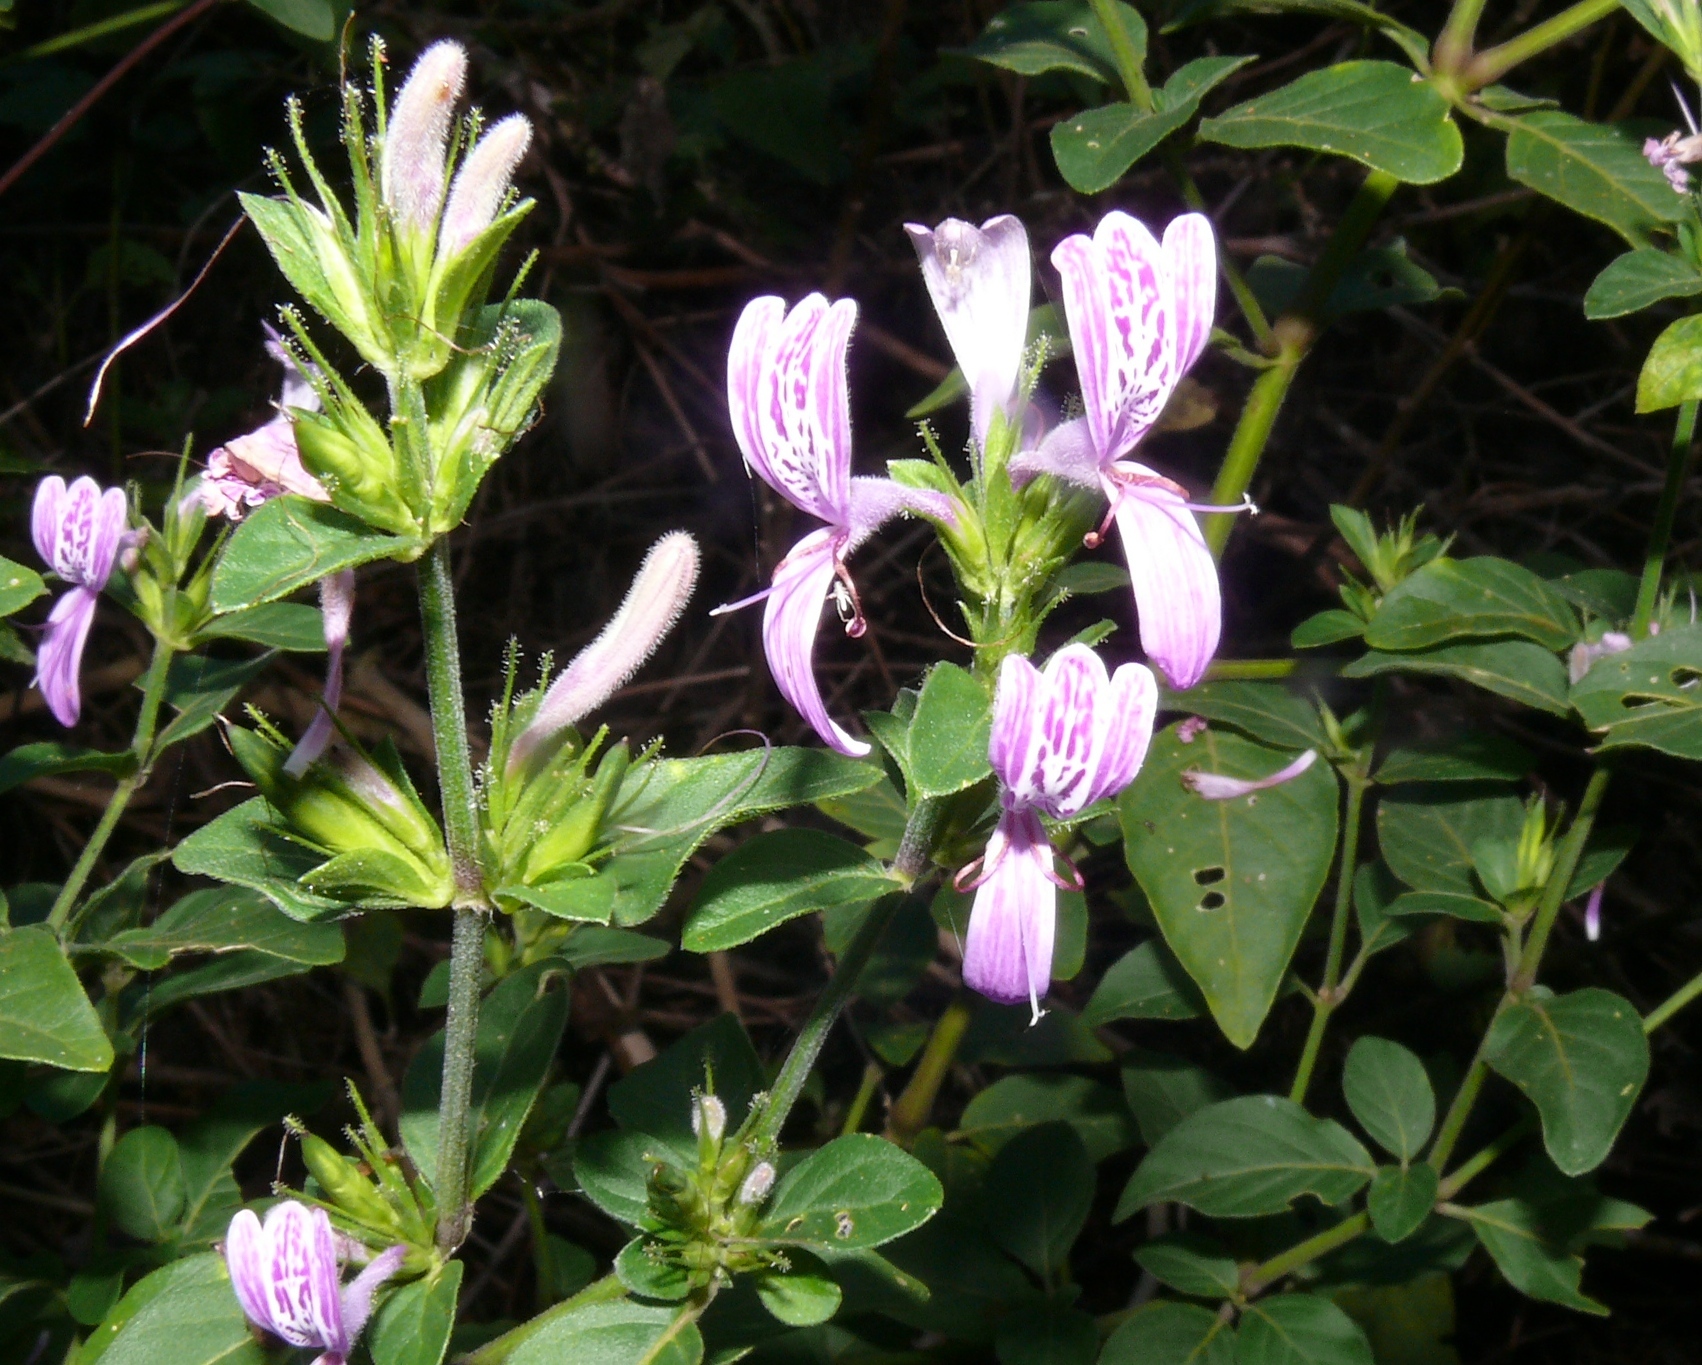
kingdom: Plantae
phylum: Tracheophyta
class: Magnoliopsida
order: Lamiales
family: Acanthaceae
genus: Hypoestes
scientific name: Hypoestes aristata
